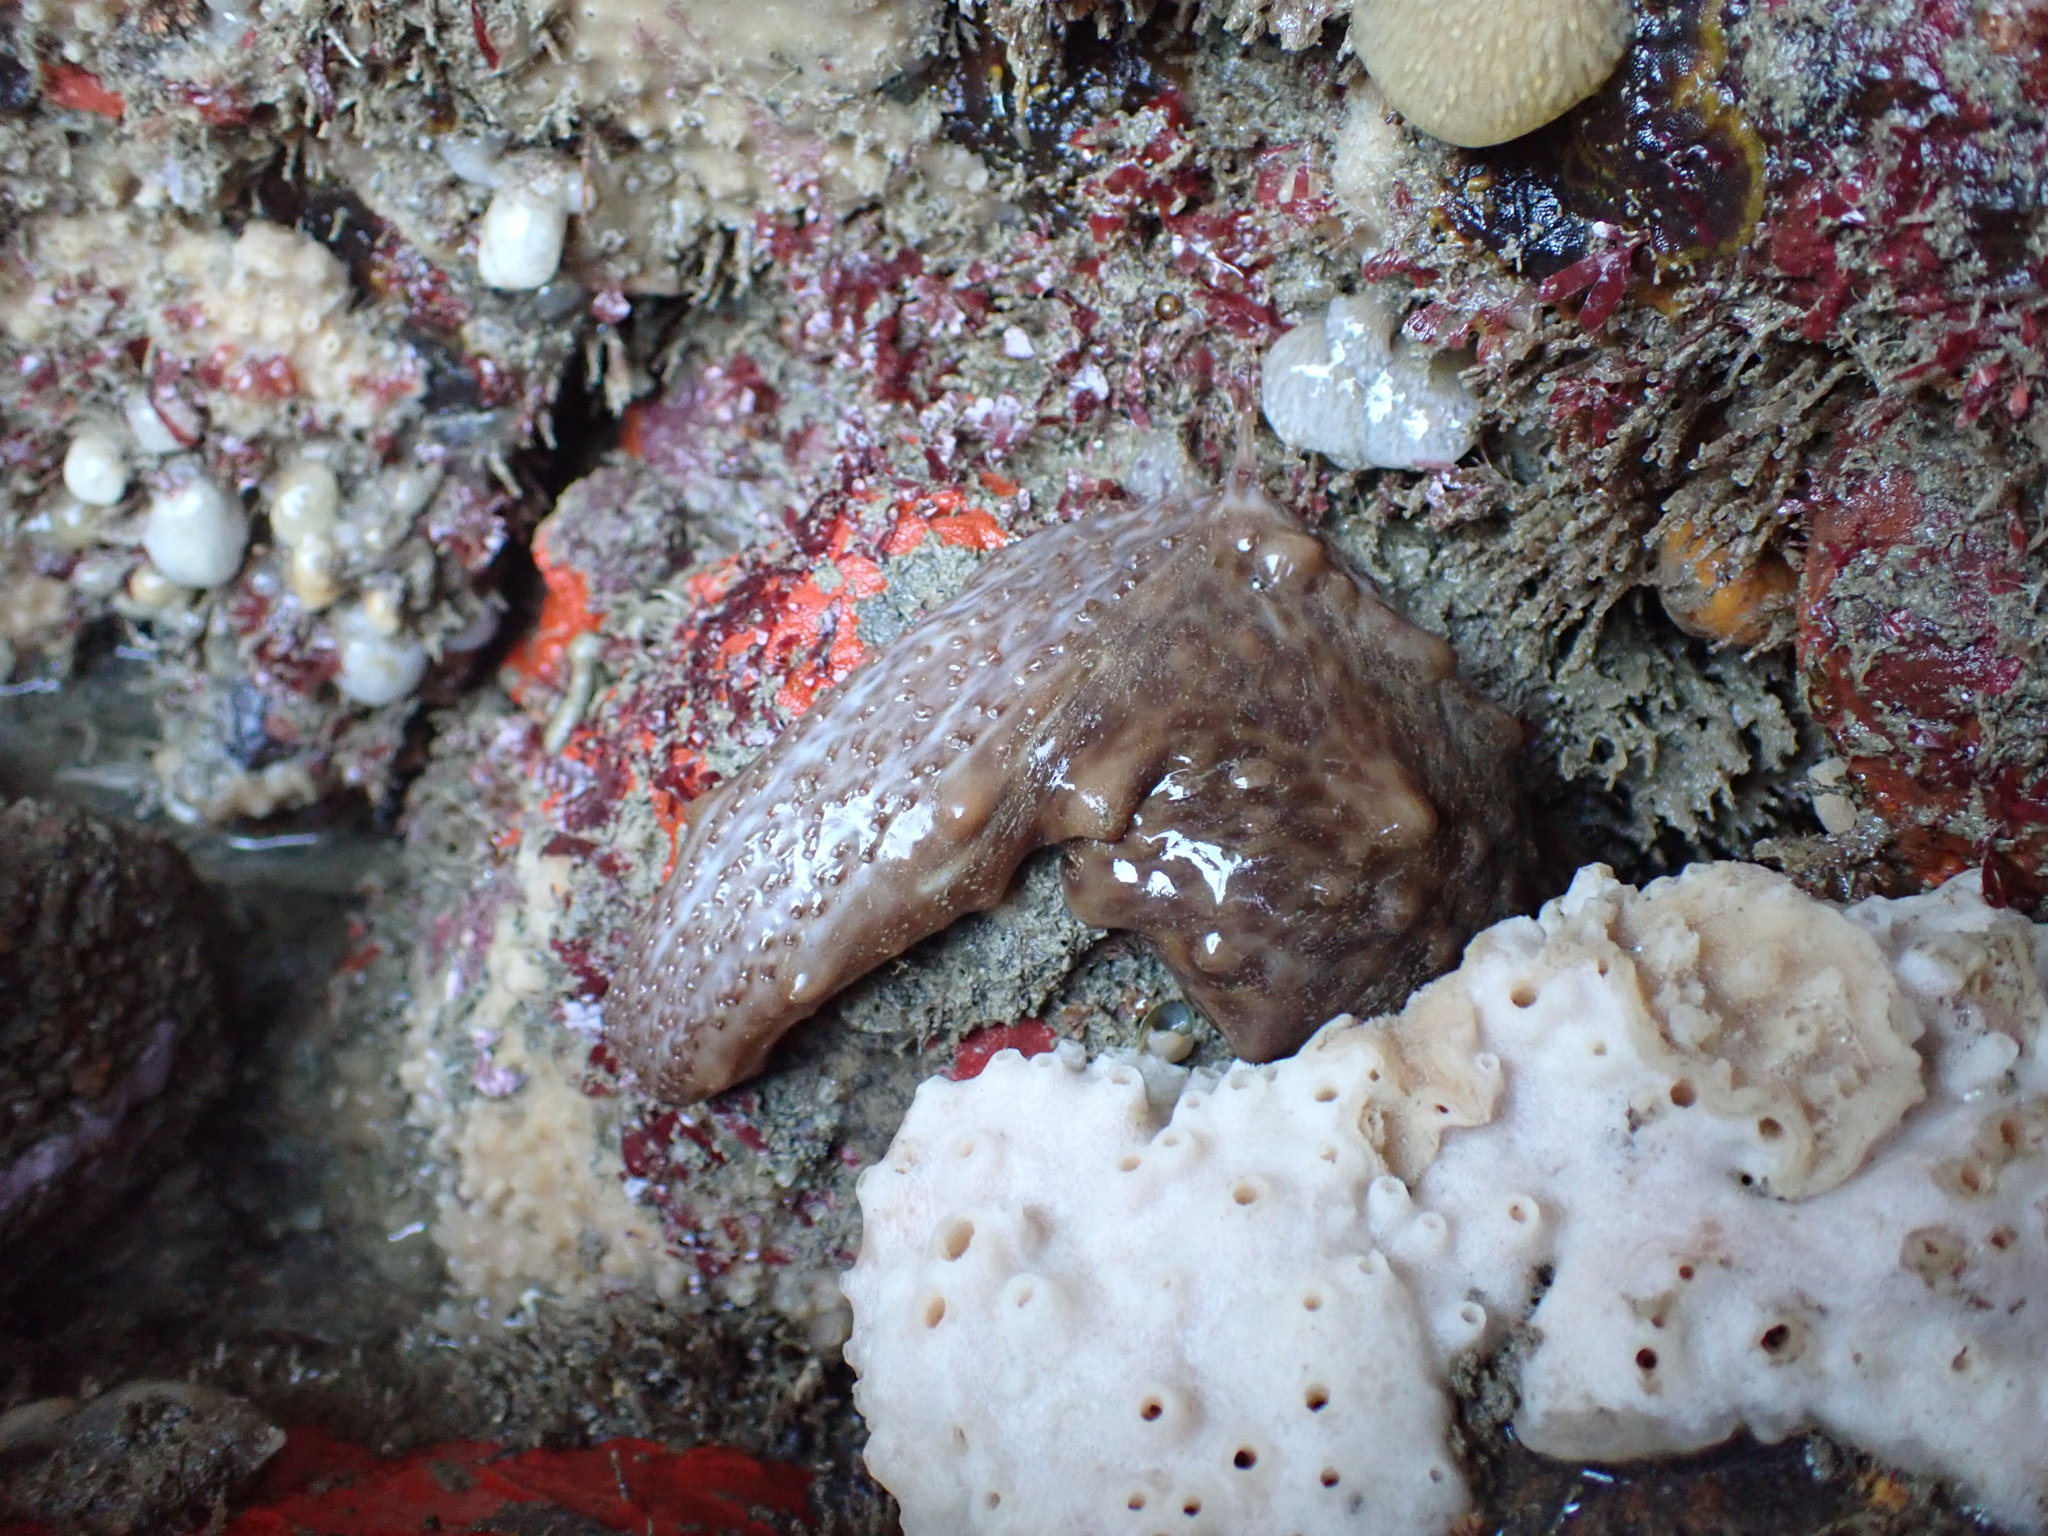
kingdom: Animalia
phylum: Echinodermata
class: Holothuroidea
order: Synallactida
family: Stichopodidae
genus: Australostichopus
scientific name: Australostichopus mollis
